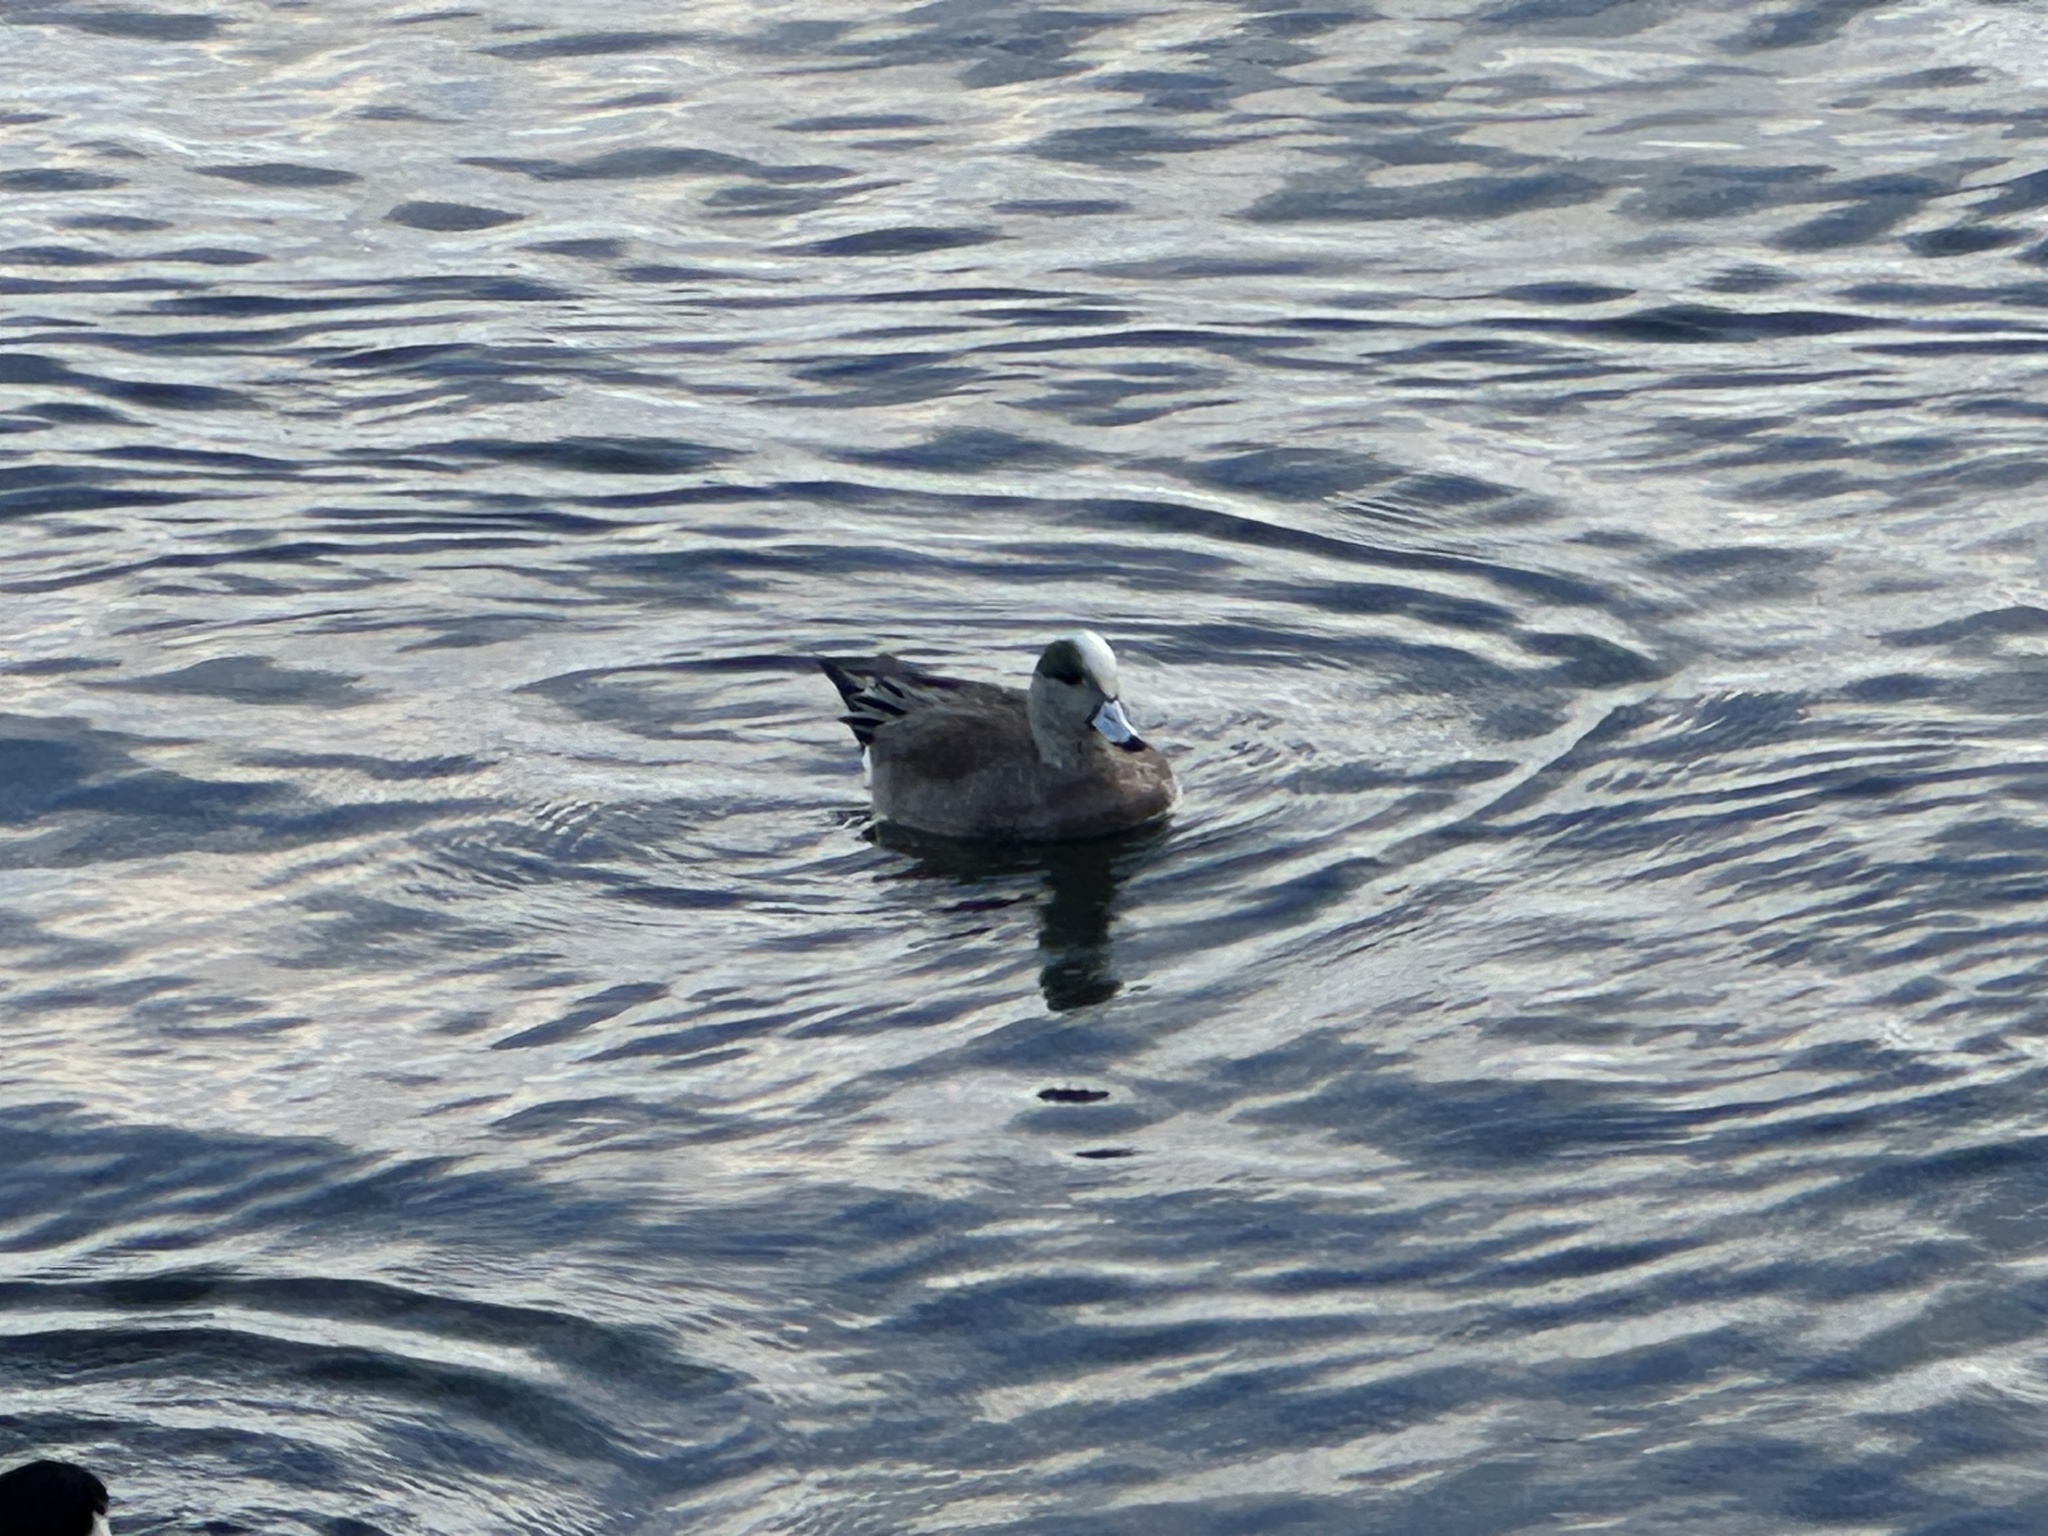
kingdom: Animalia
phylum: Chordata
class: Aves
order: Anseriformes
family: Anatidae
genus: Mareca
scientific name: Mareca americana
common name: American wigeon
